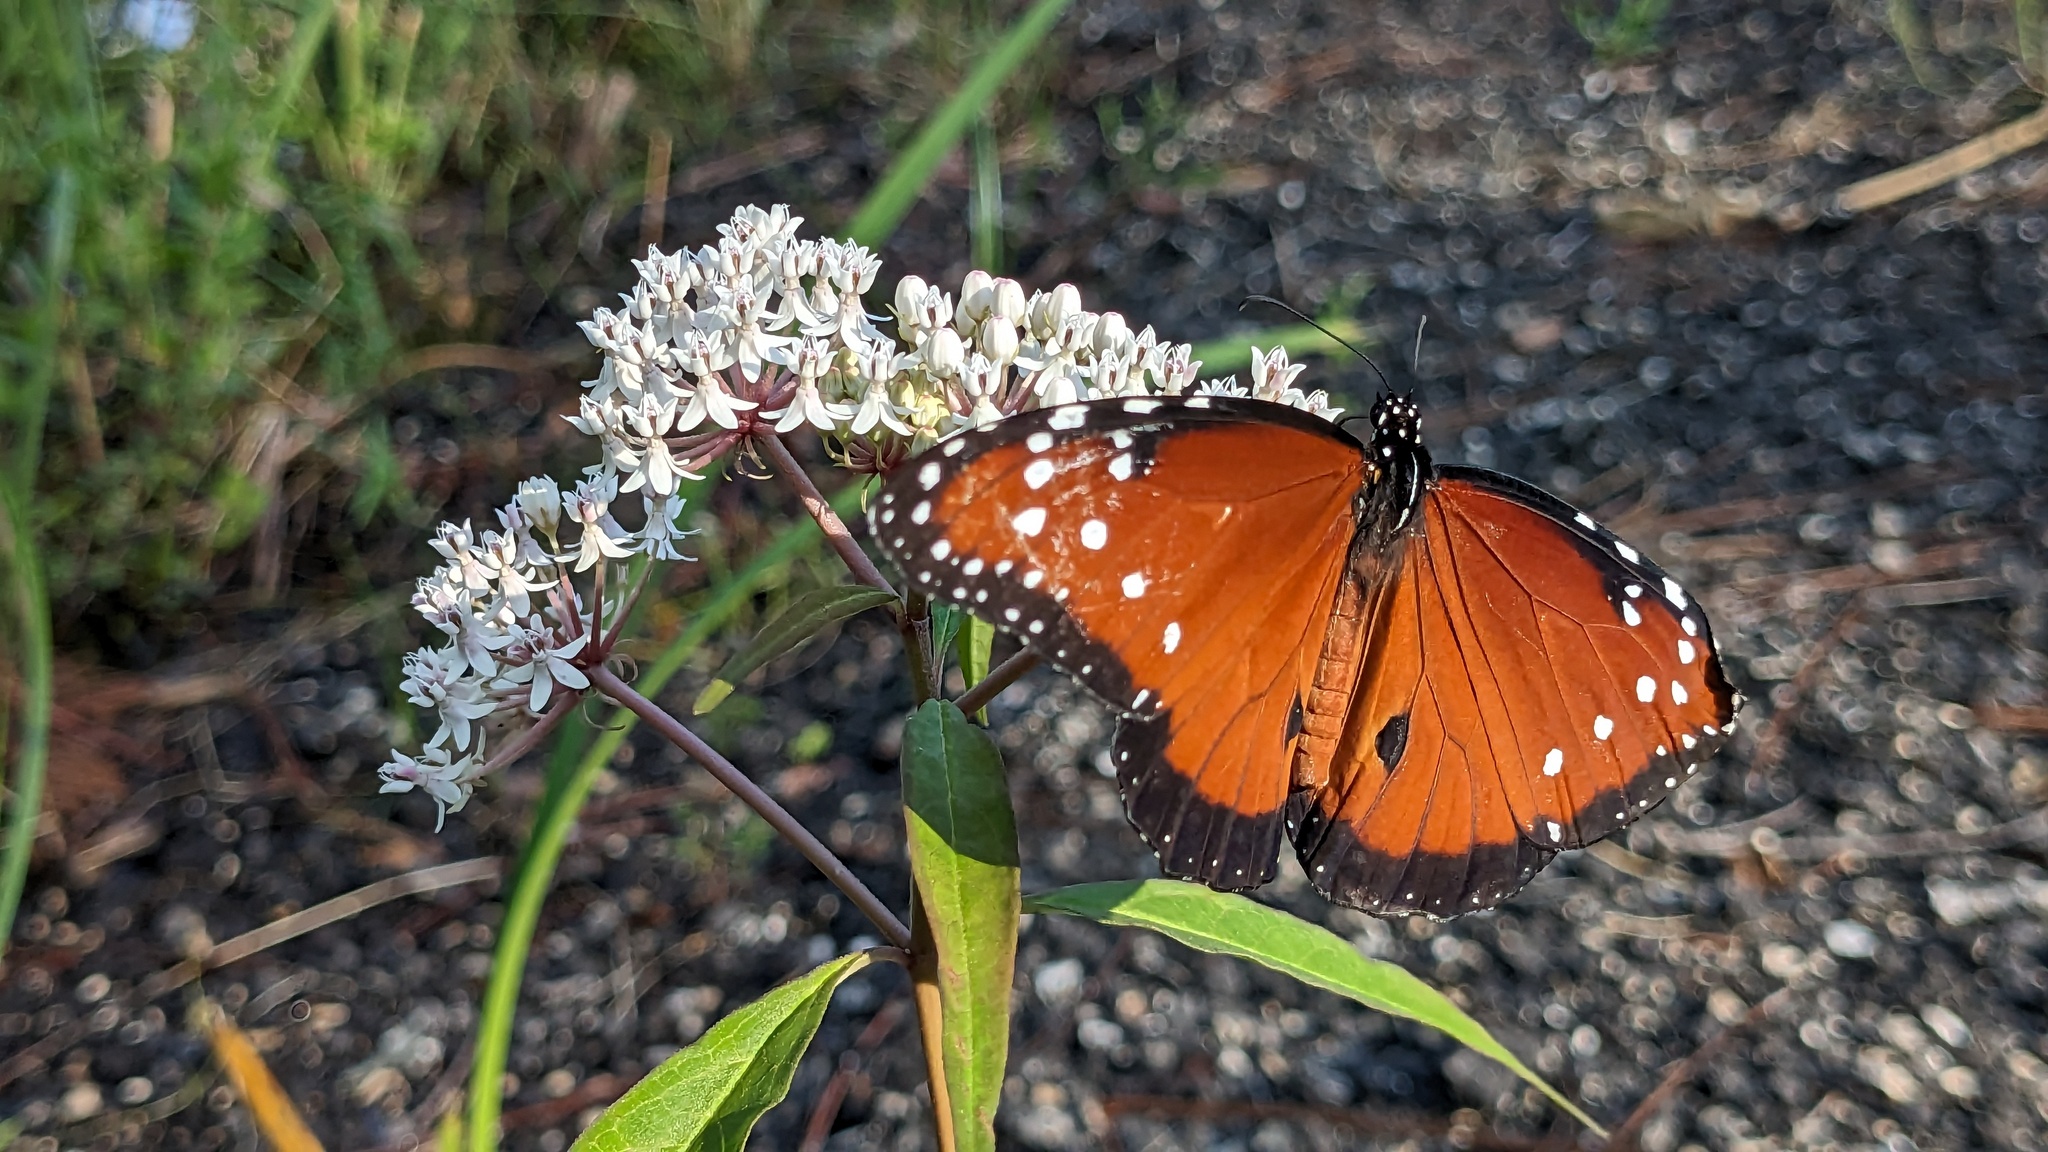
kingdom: Animalia
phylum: Arthropoda
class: Insecta
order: Lepidoptera
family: Nymphalidae
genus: Danaus
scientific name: Danaus gilippus
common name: Queen
